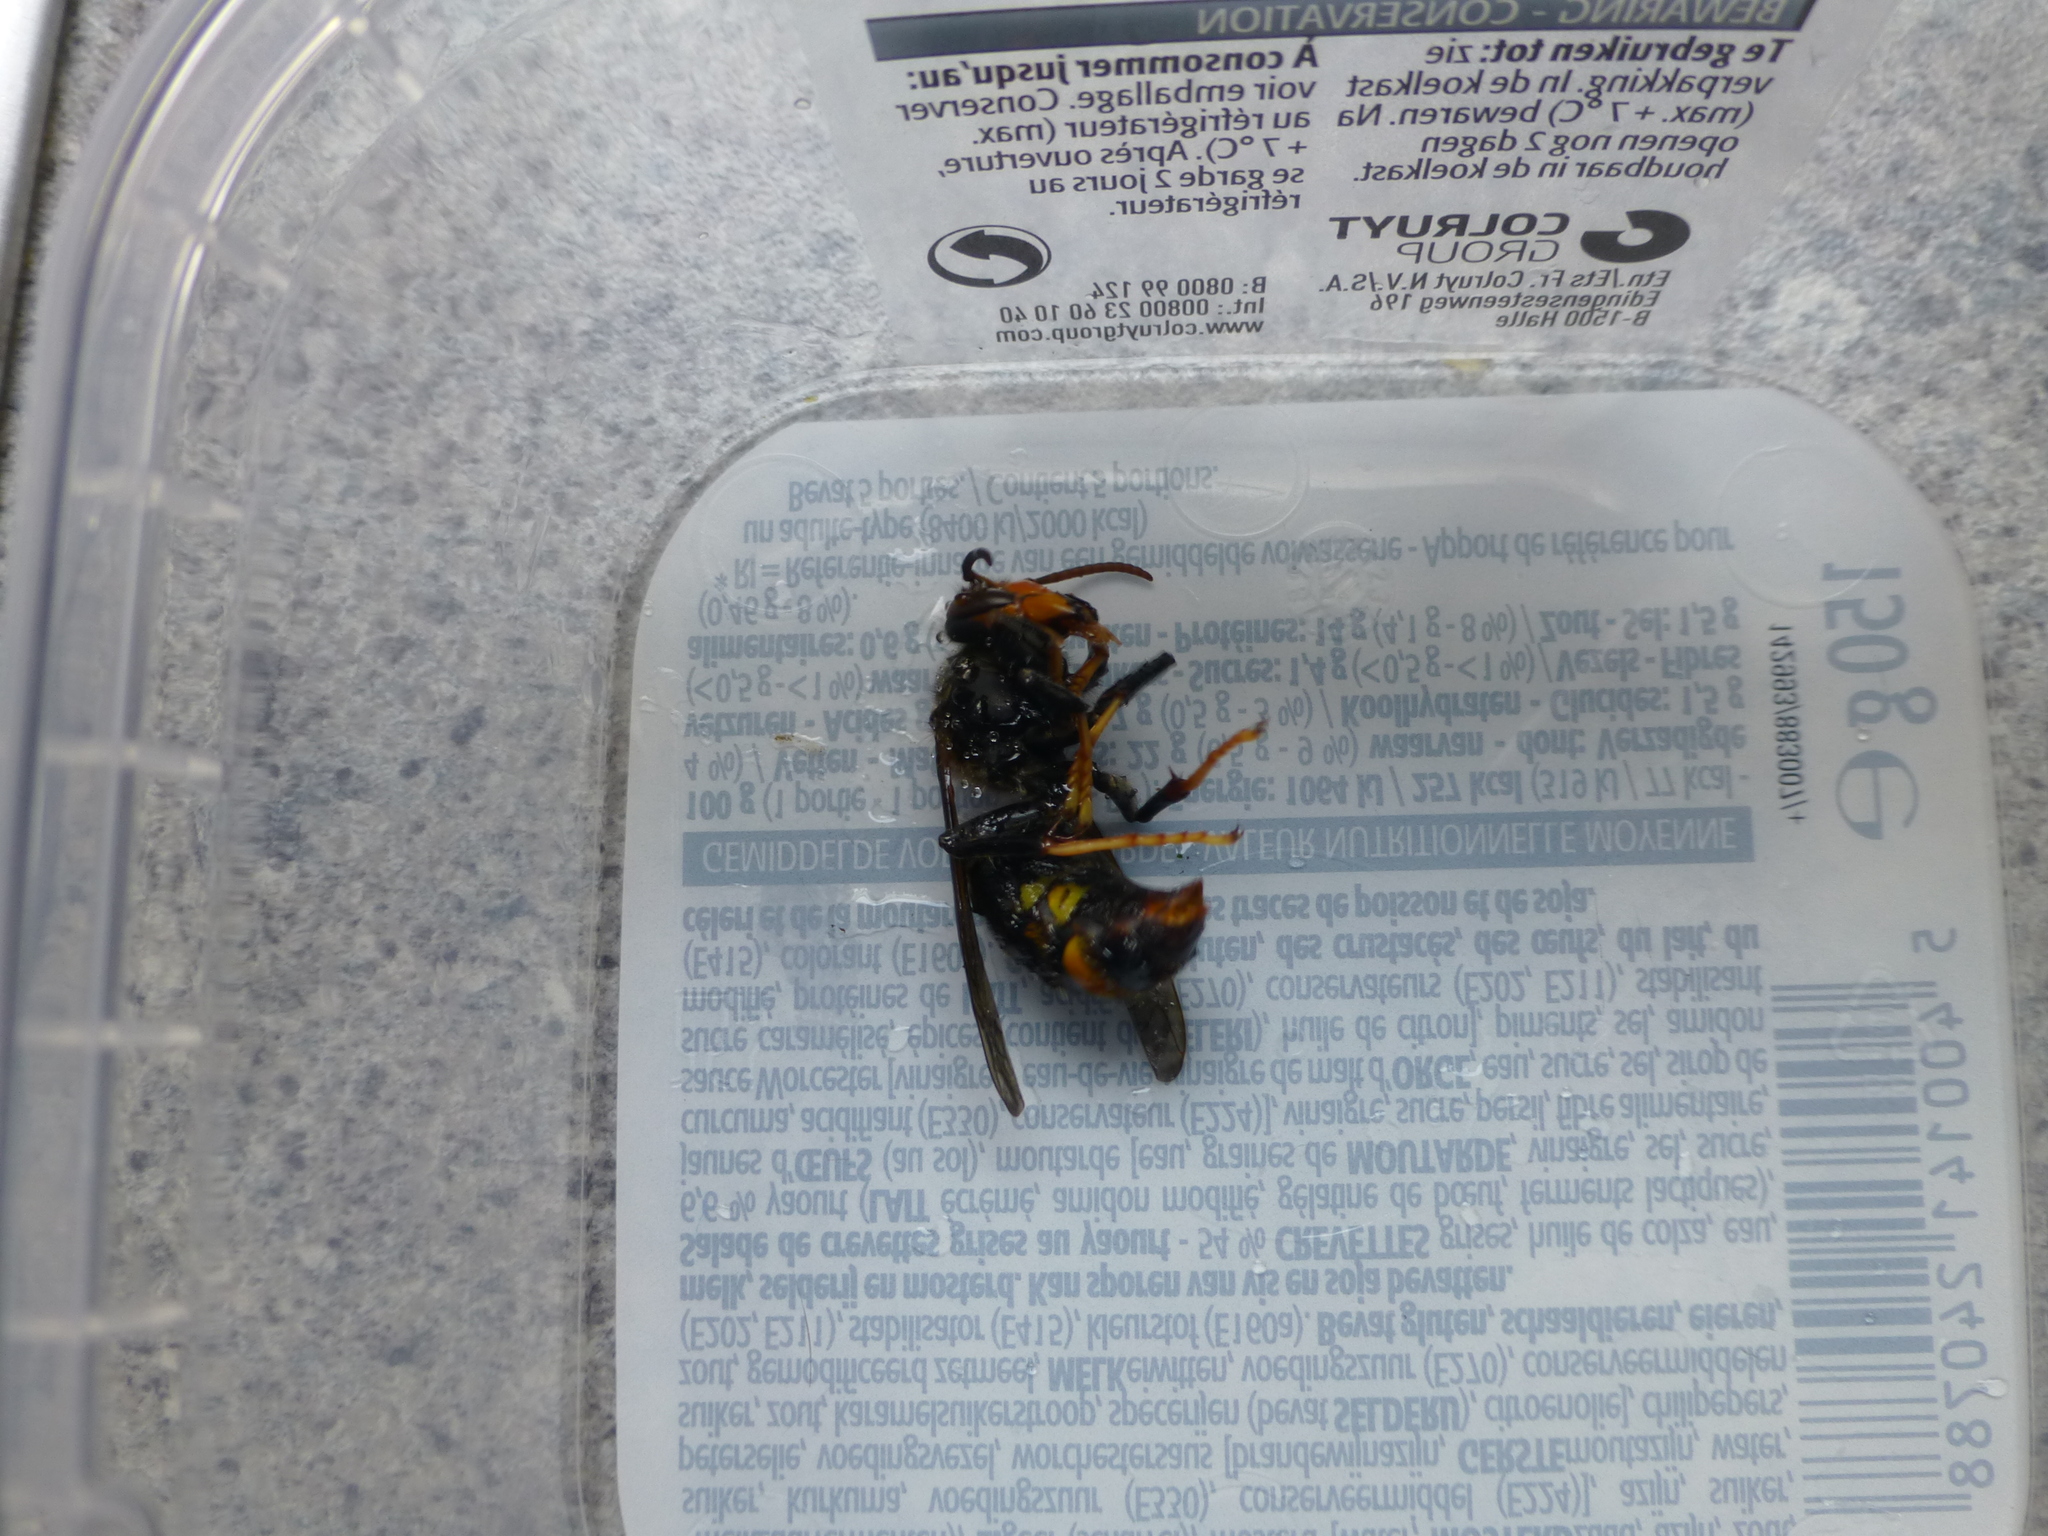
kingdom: Animalia
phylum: Arthropoda
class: Insecta
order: Hymenoptera
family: Vespidae
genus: Vespa
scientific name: Vespa velutina
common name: Asian hornet
